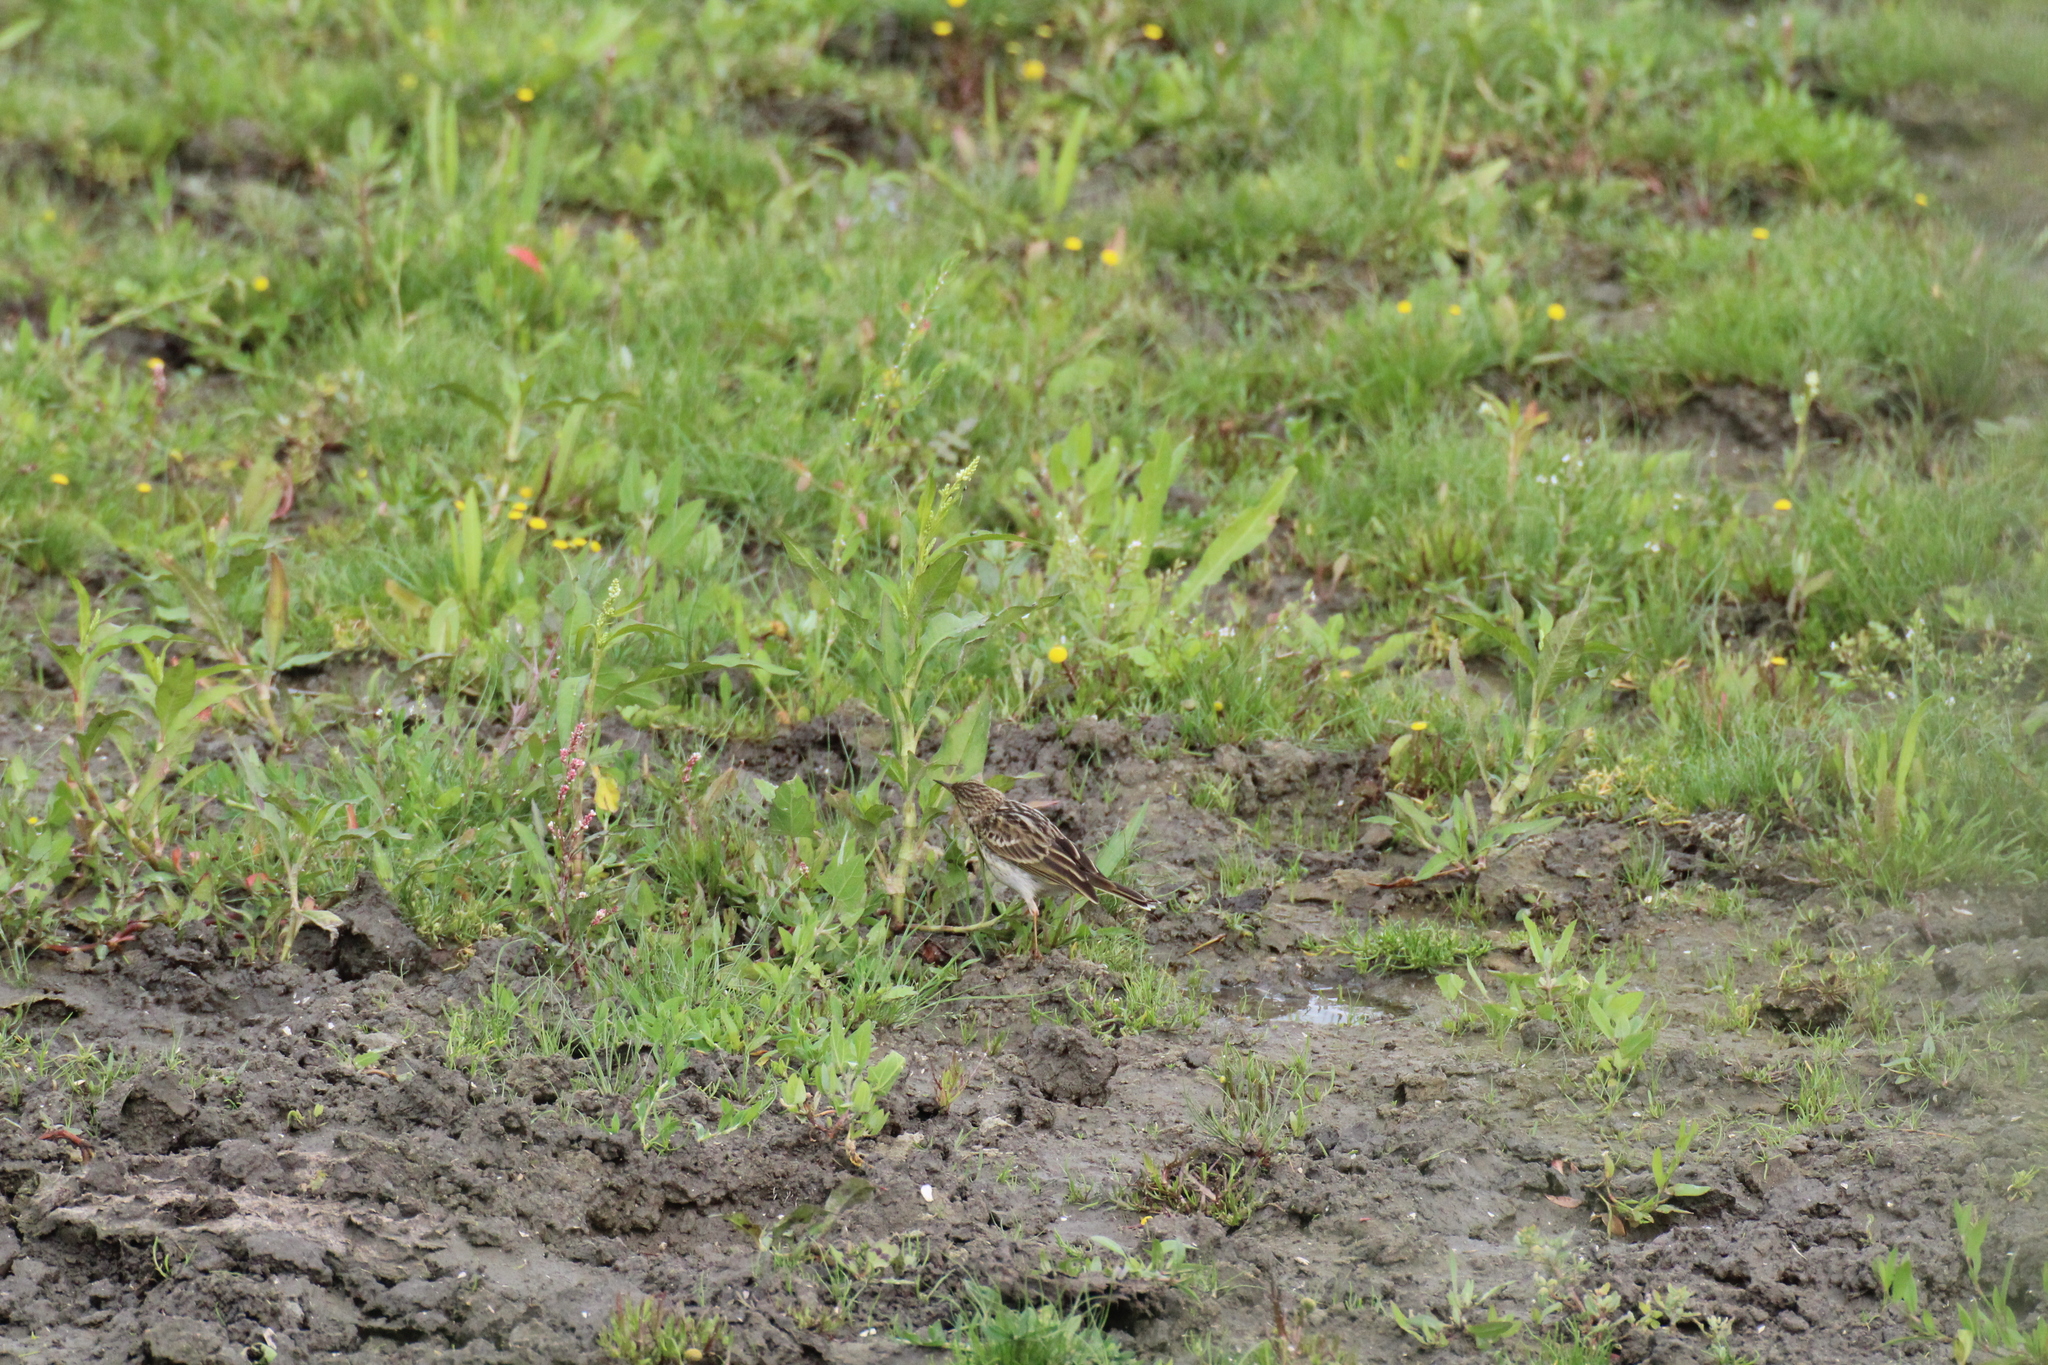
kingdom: Animalia
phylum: Chordata
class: Aves
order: Passeriformes
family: Motacillidae
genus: Anthus
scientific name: Anthus pratensis
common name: Meadow pipit
